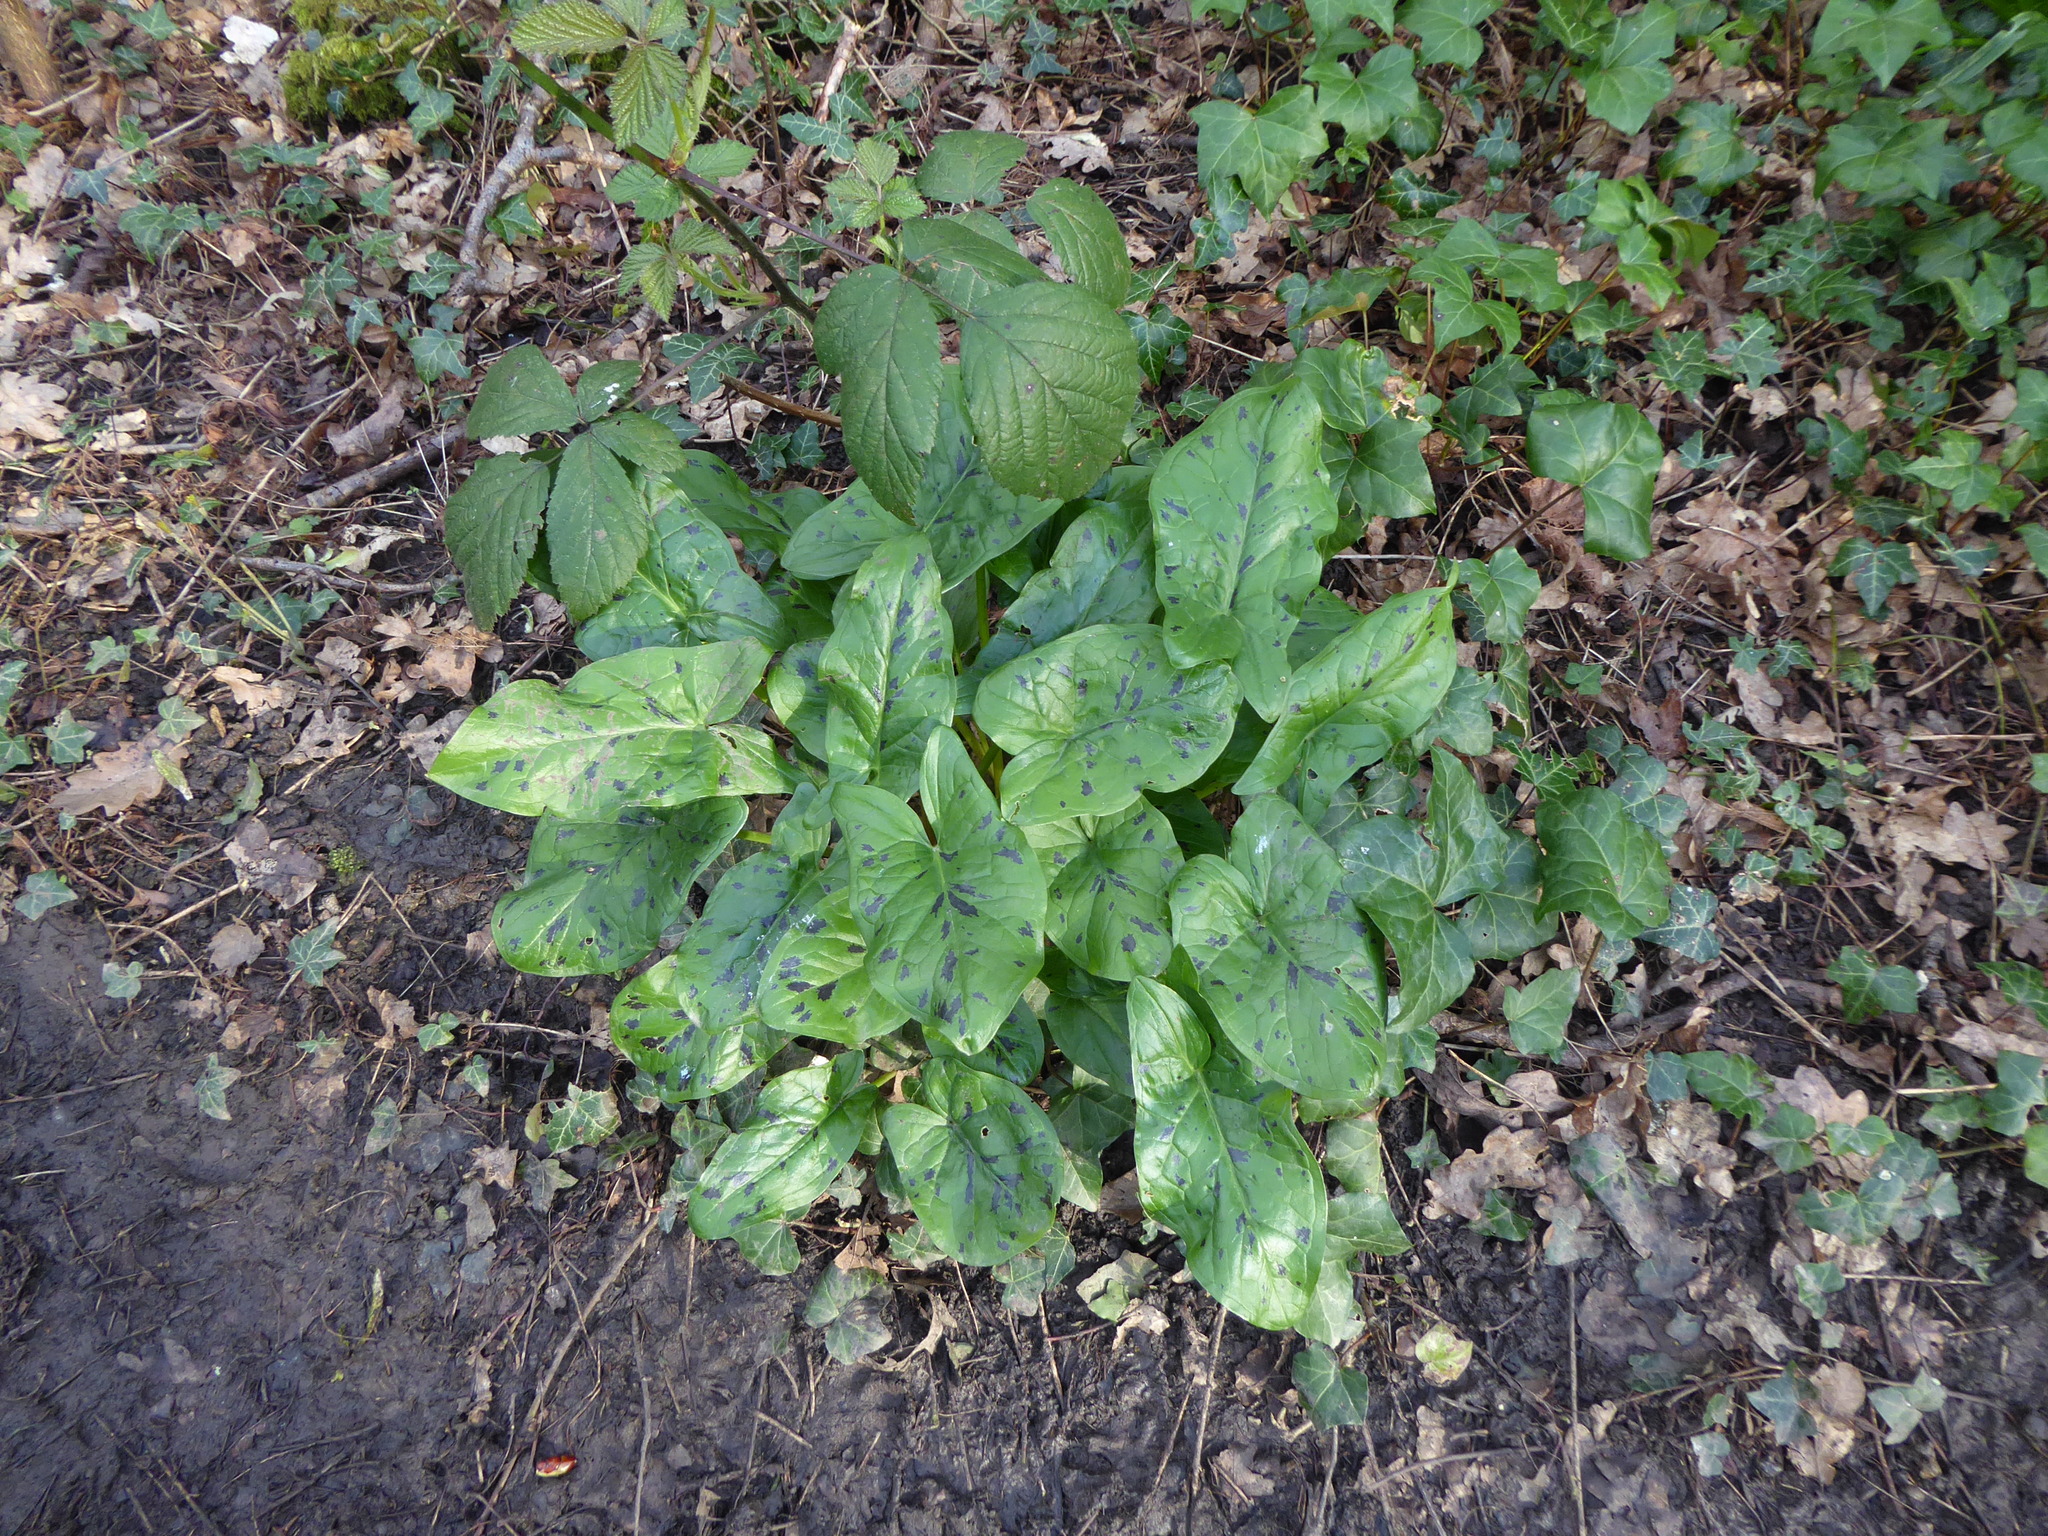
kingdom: Plantae
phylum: Tracheophyta
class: Liliopsida
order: Alismatales
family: Araceae
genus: Arum
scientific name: Arum maculatum
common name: Lords-and-ladies
